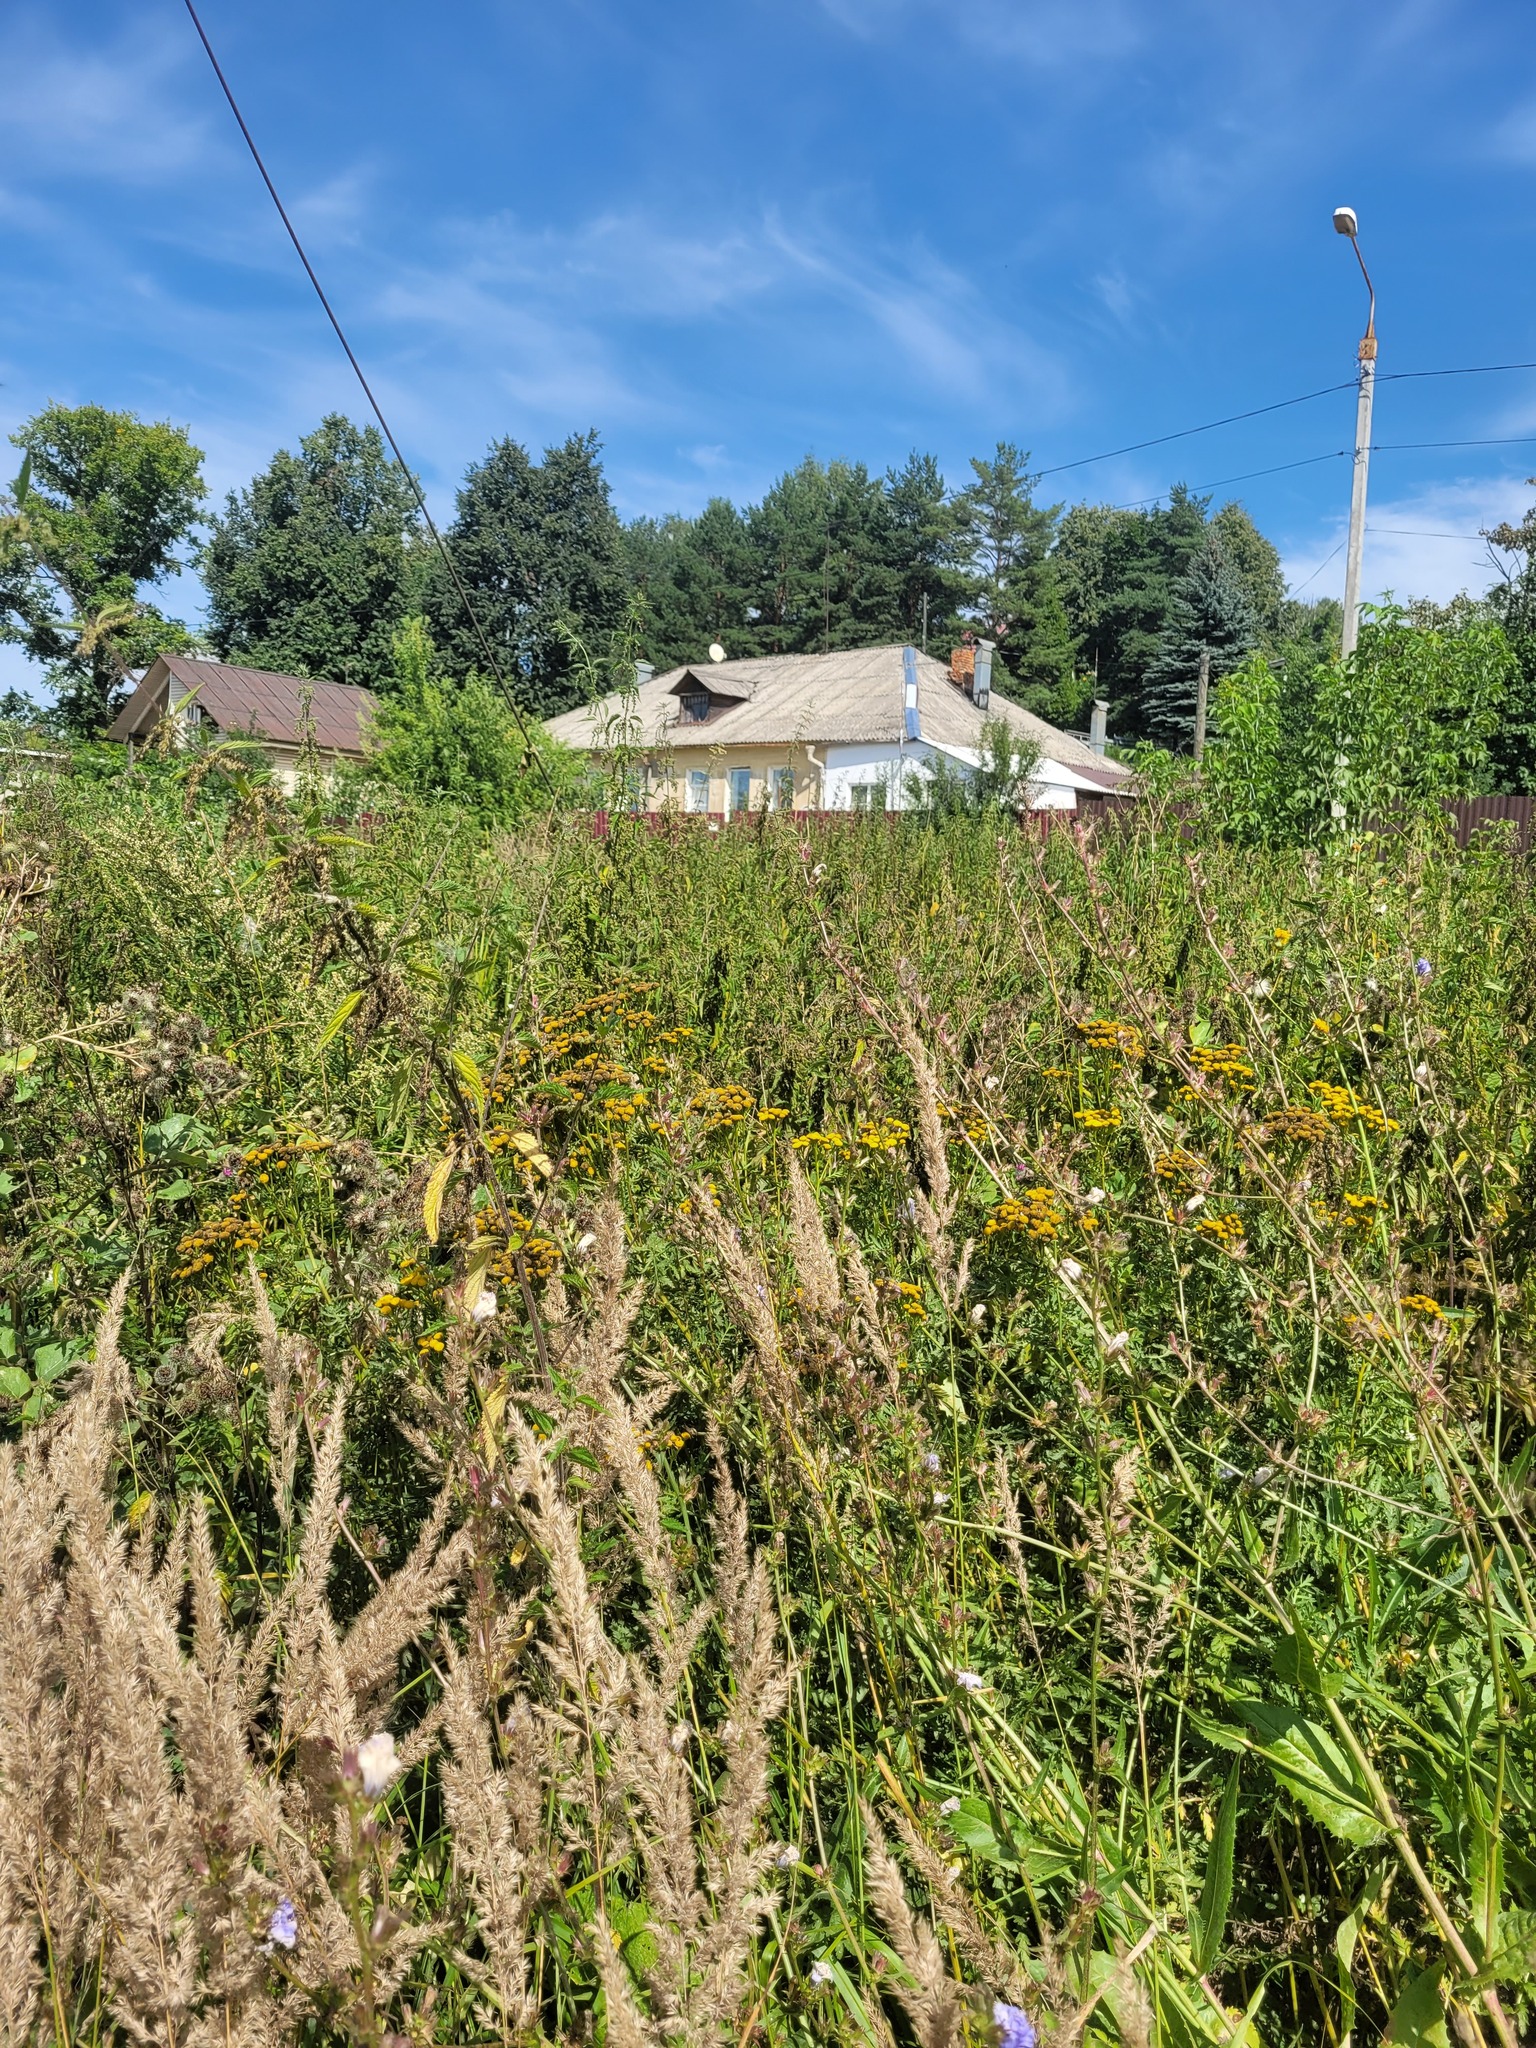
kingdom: Plantae
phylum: Tracheophyta
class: Magnoliopsida
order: Asterales
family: Asteraceae
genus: Tanacetum
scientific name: Tanacetum vulgare
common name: Common tansy
